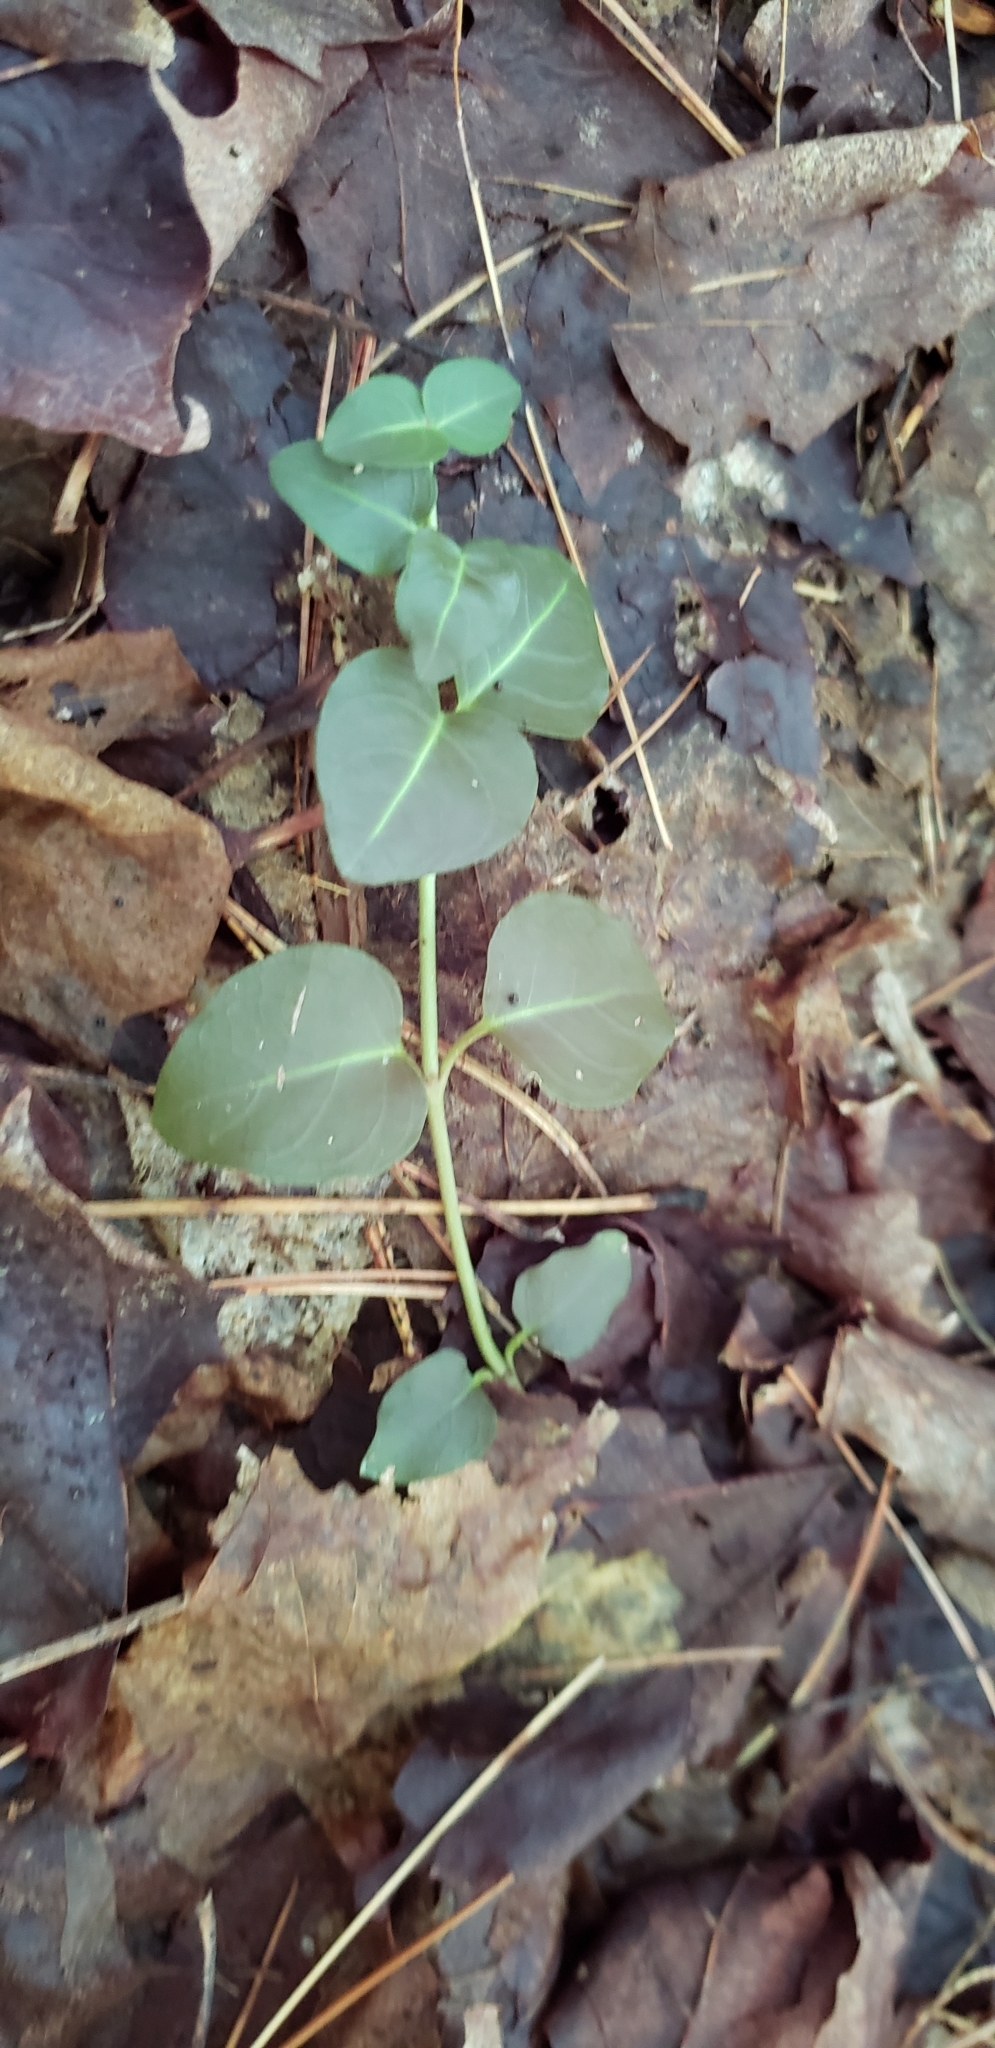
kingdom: Plantae
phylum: Tracheophyta
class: Magnoliopsida
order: Gentianales
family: Rubiaceae
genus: Mitchella
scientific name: Mitchella repens
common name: Partridge-berry
